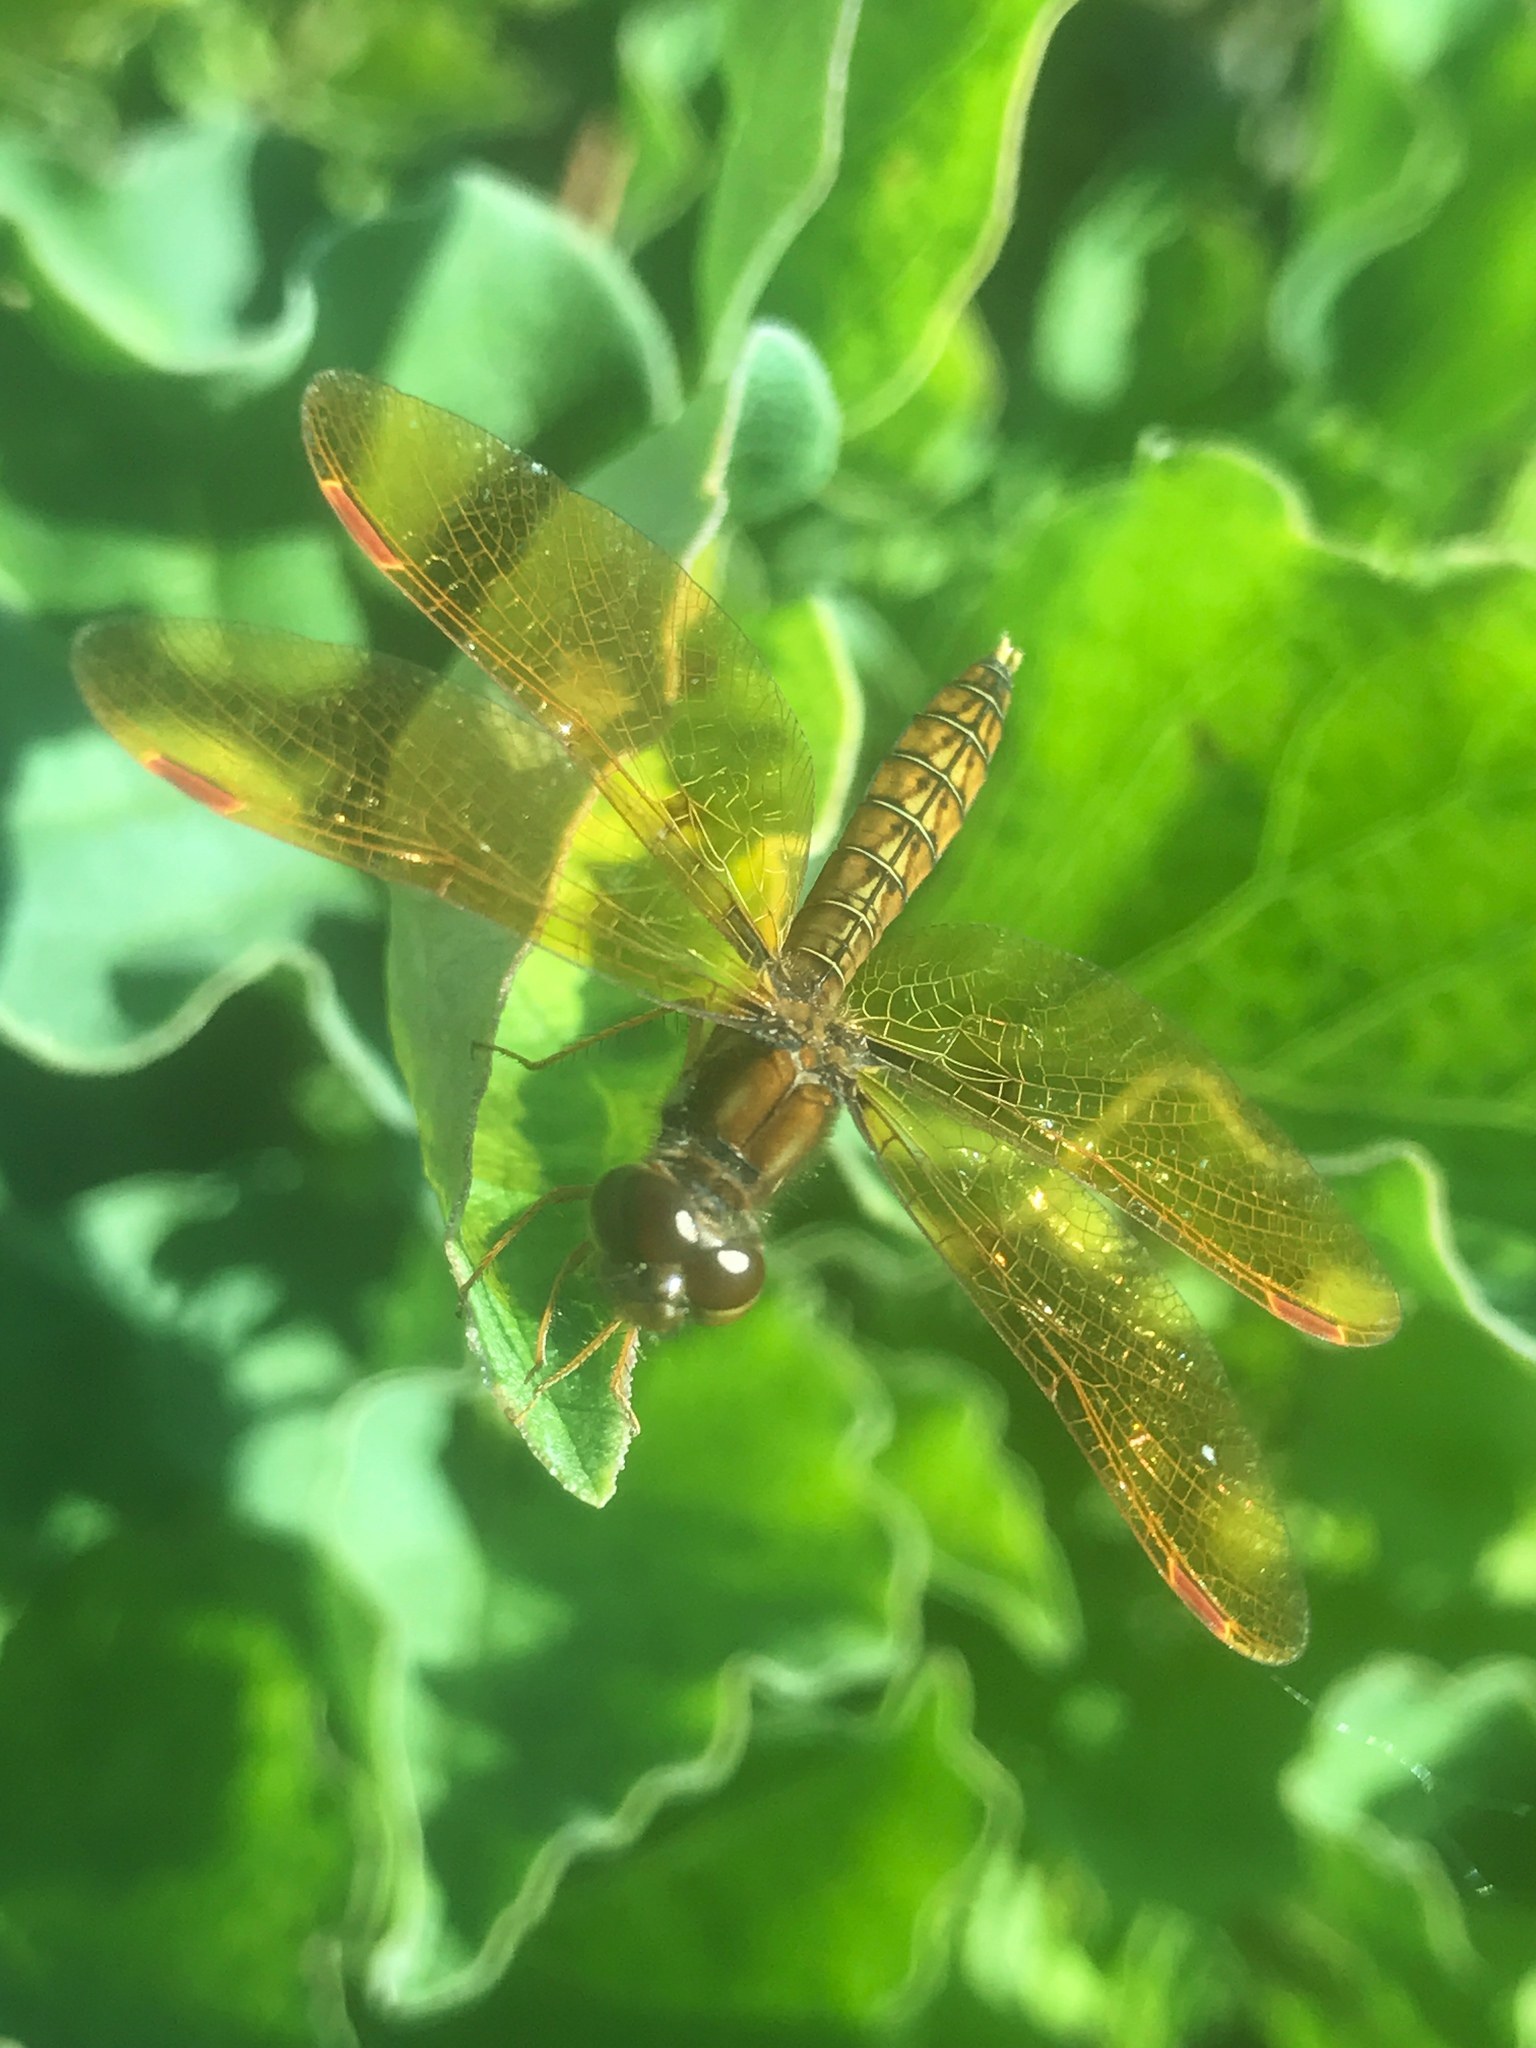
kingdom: Animalia
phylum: Arthropoda
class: Insecta
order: Odonata
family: Libellulidae
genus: Perithemis
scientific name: Perithemis tenera
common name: Eastern amberwing
